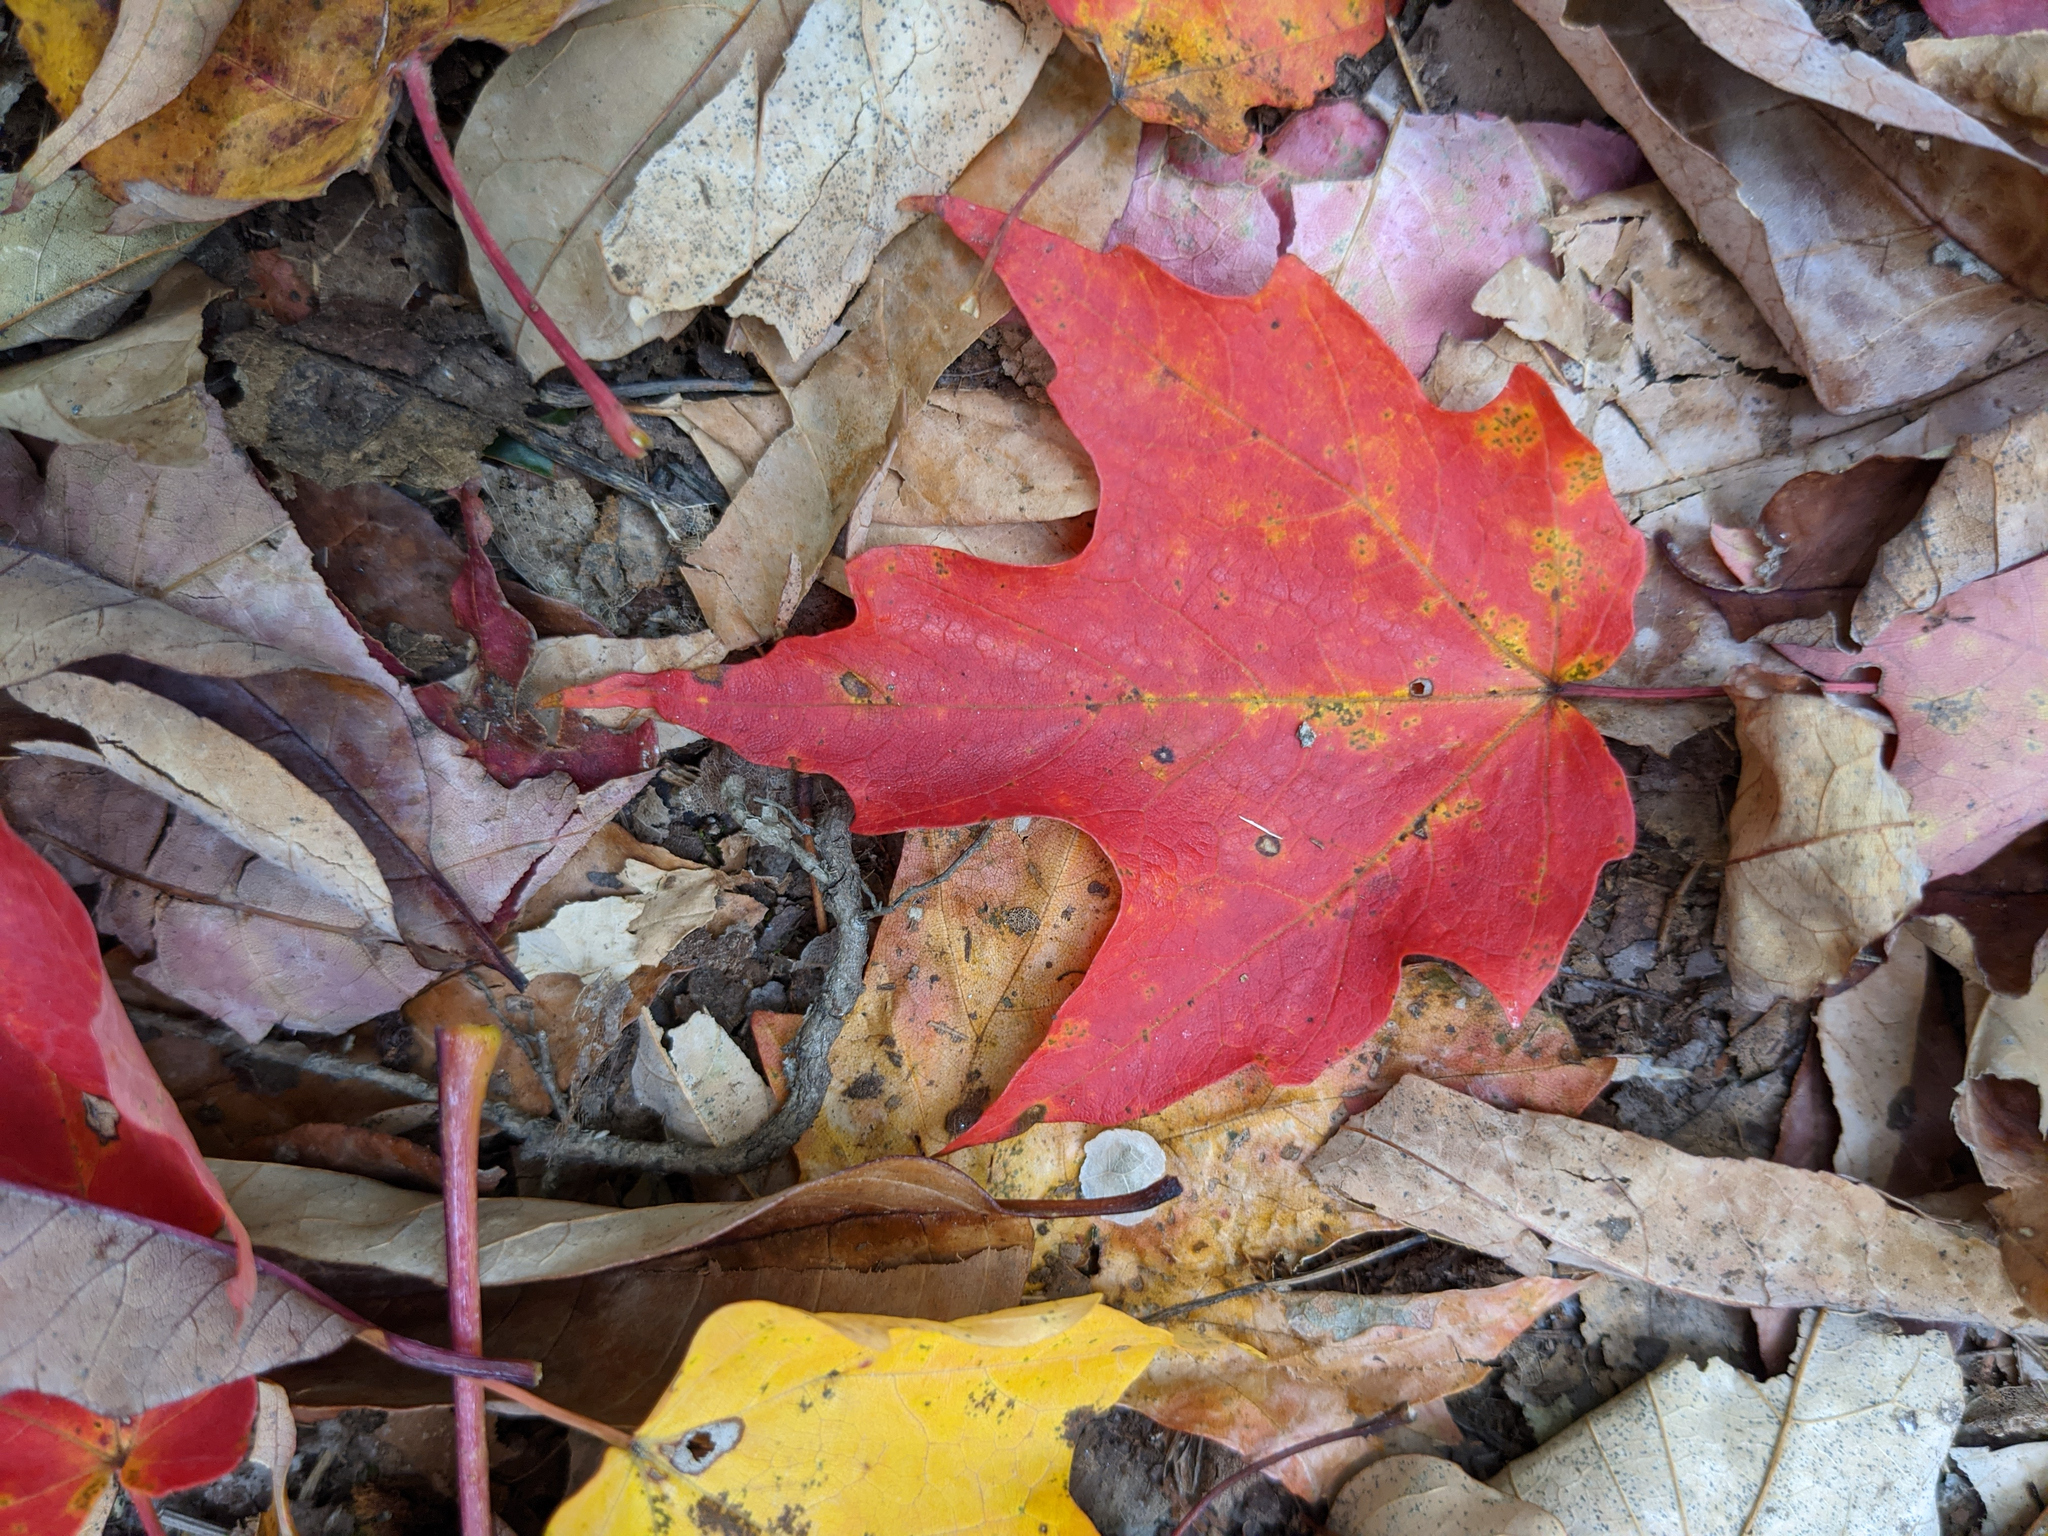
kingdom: Plantae
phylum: Tracheophyta
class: Magnoliopsida
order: Sapindales
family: Sapindaceae
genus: Acer
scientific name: Acer saccharum
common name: Sugar maple
